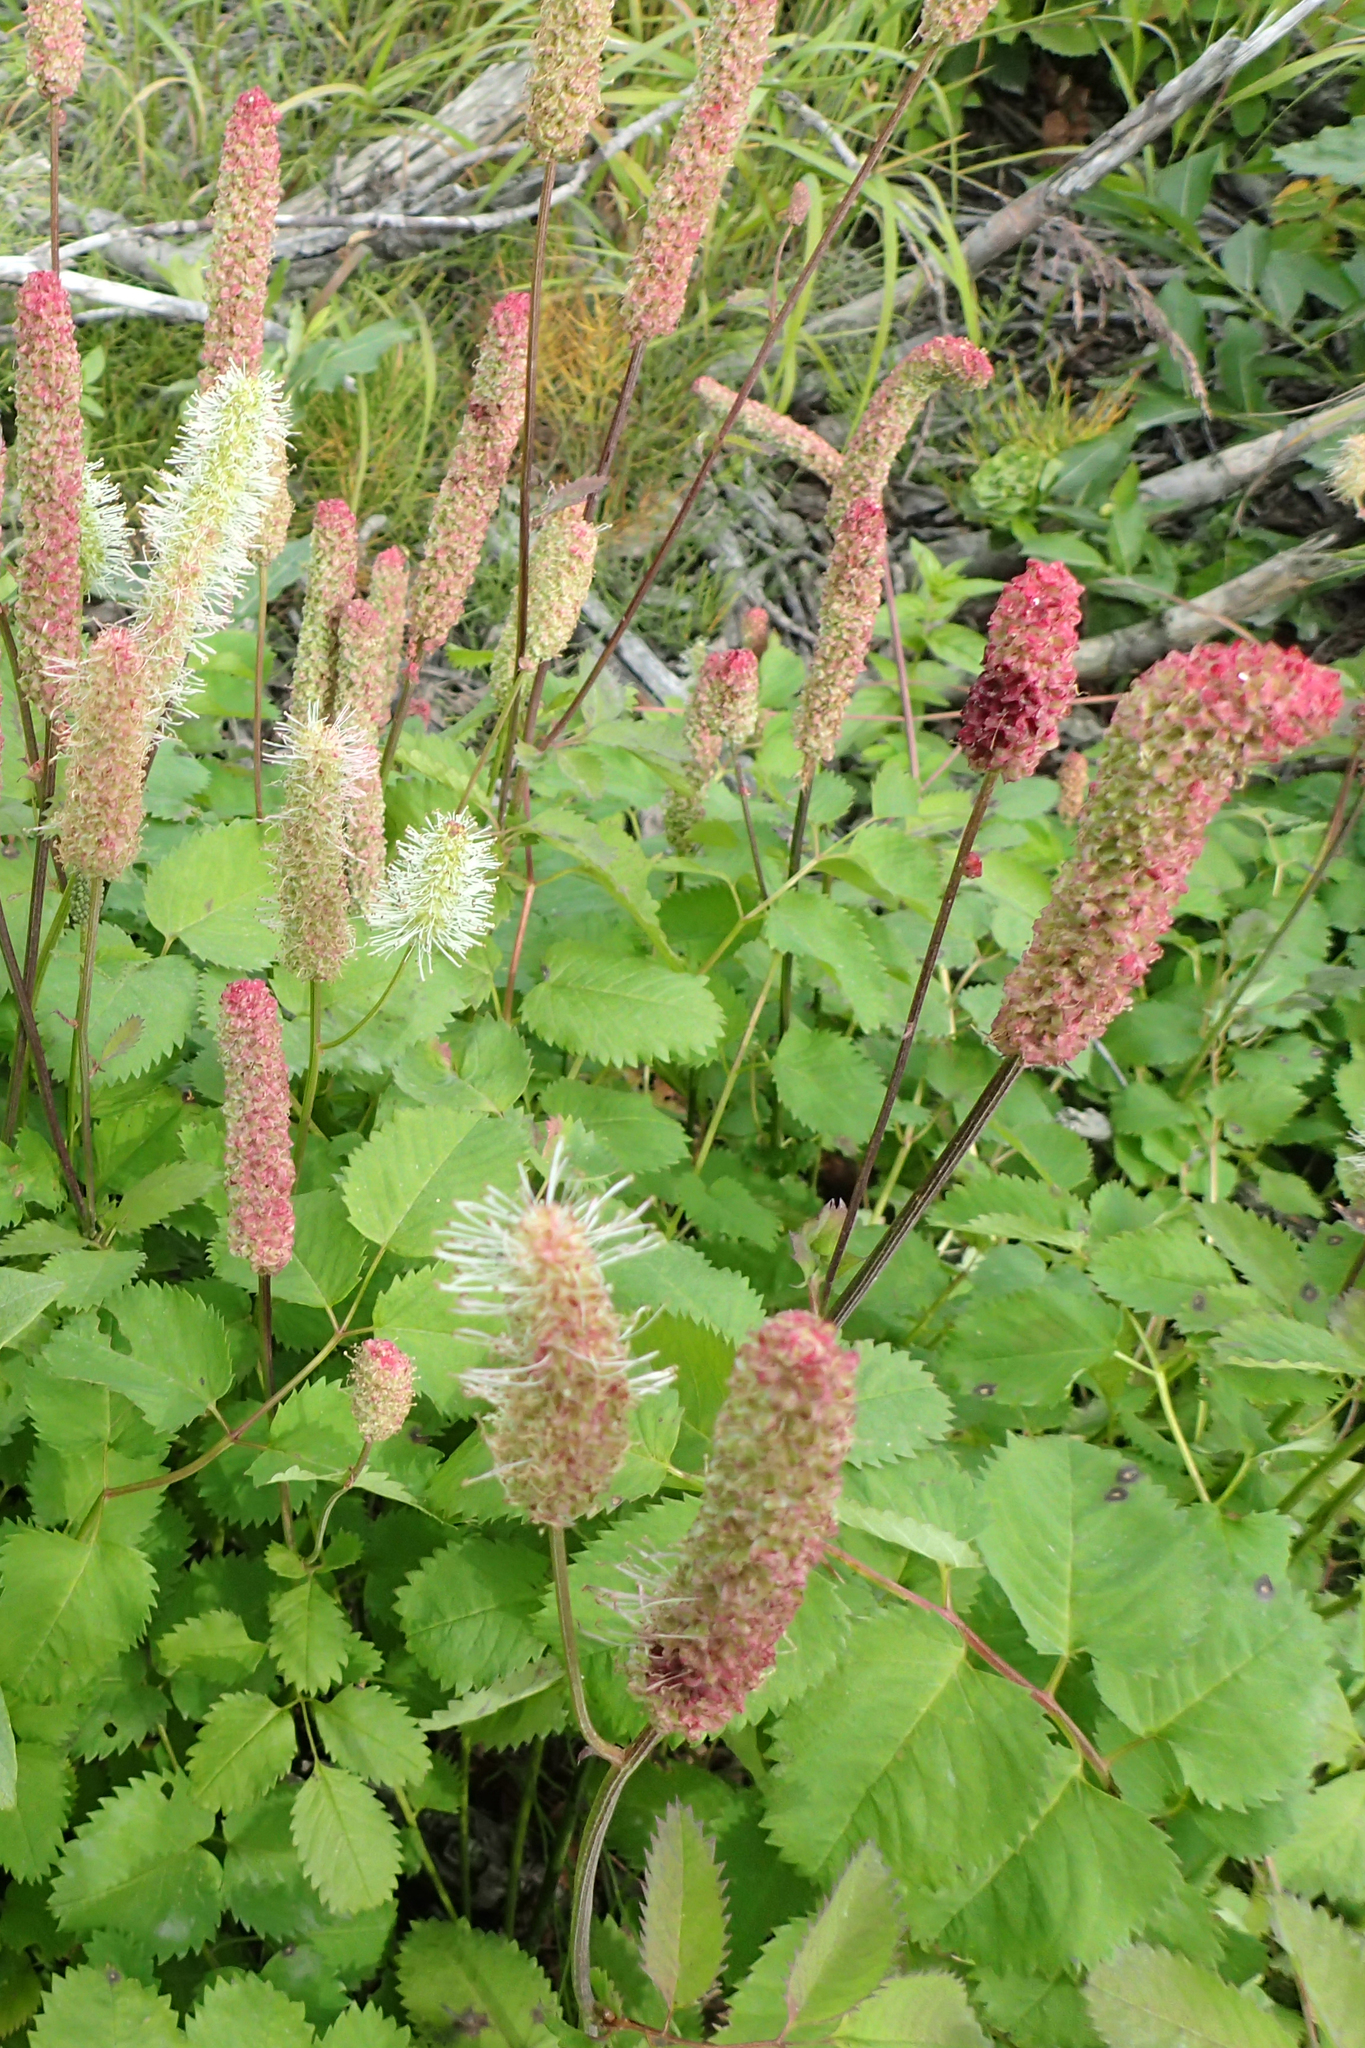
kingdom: Plantae
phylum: Tracheophyta
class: Magnoliopsida
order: Rosales
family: Rosaceae
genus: Sanguisorba
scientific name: Sanguisorba stipulata
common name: Sitka burnet
